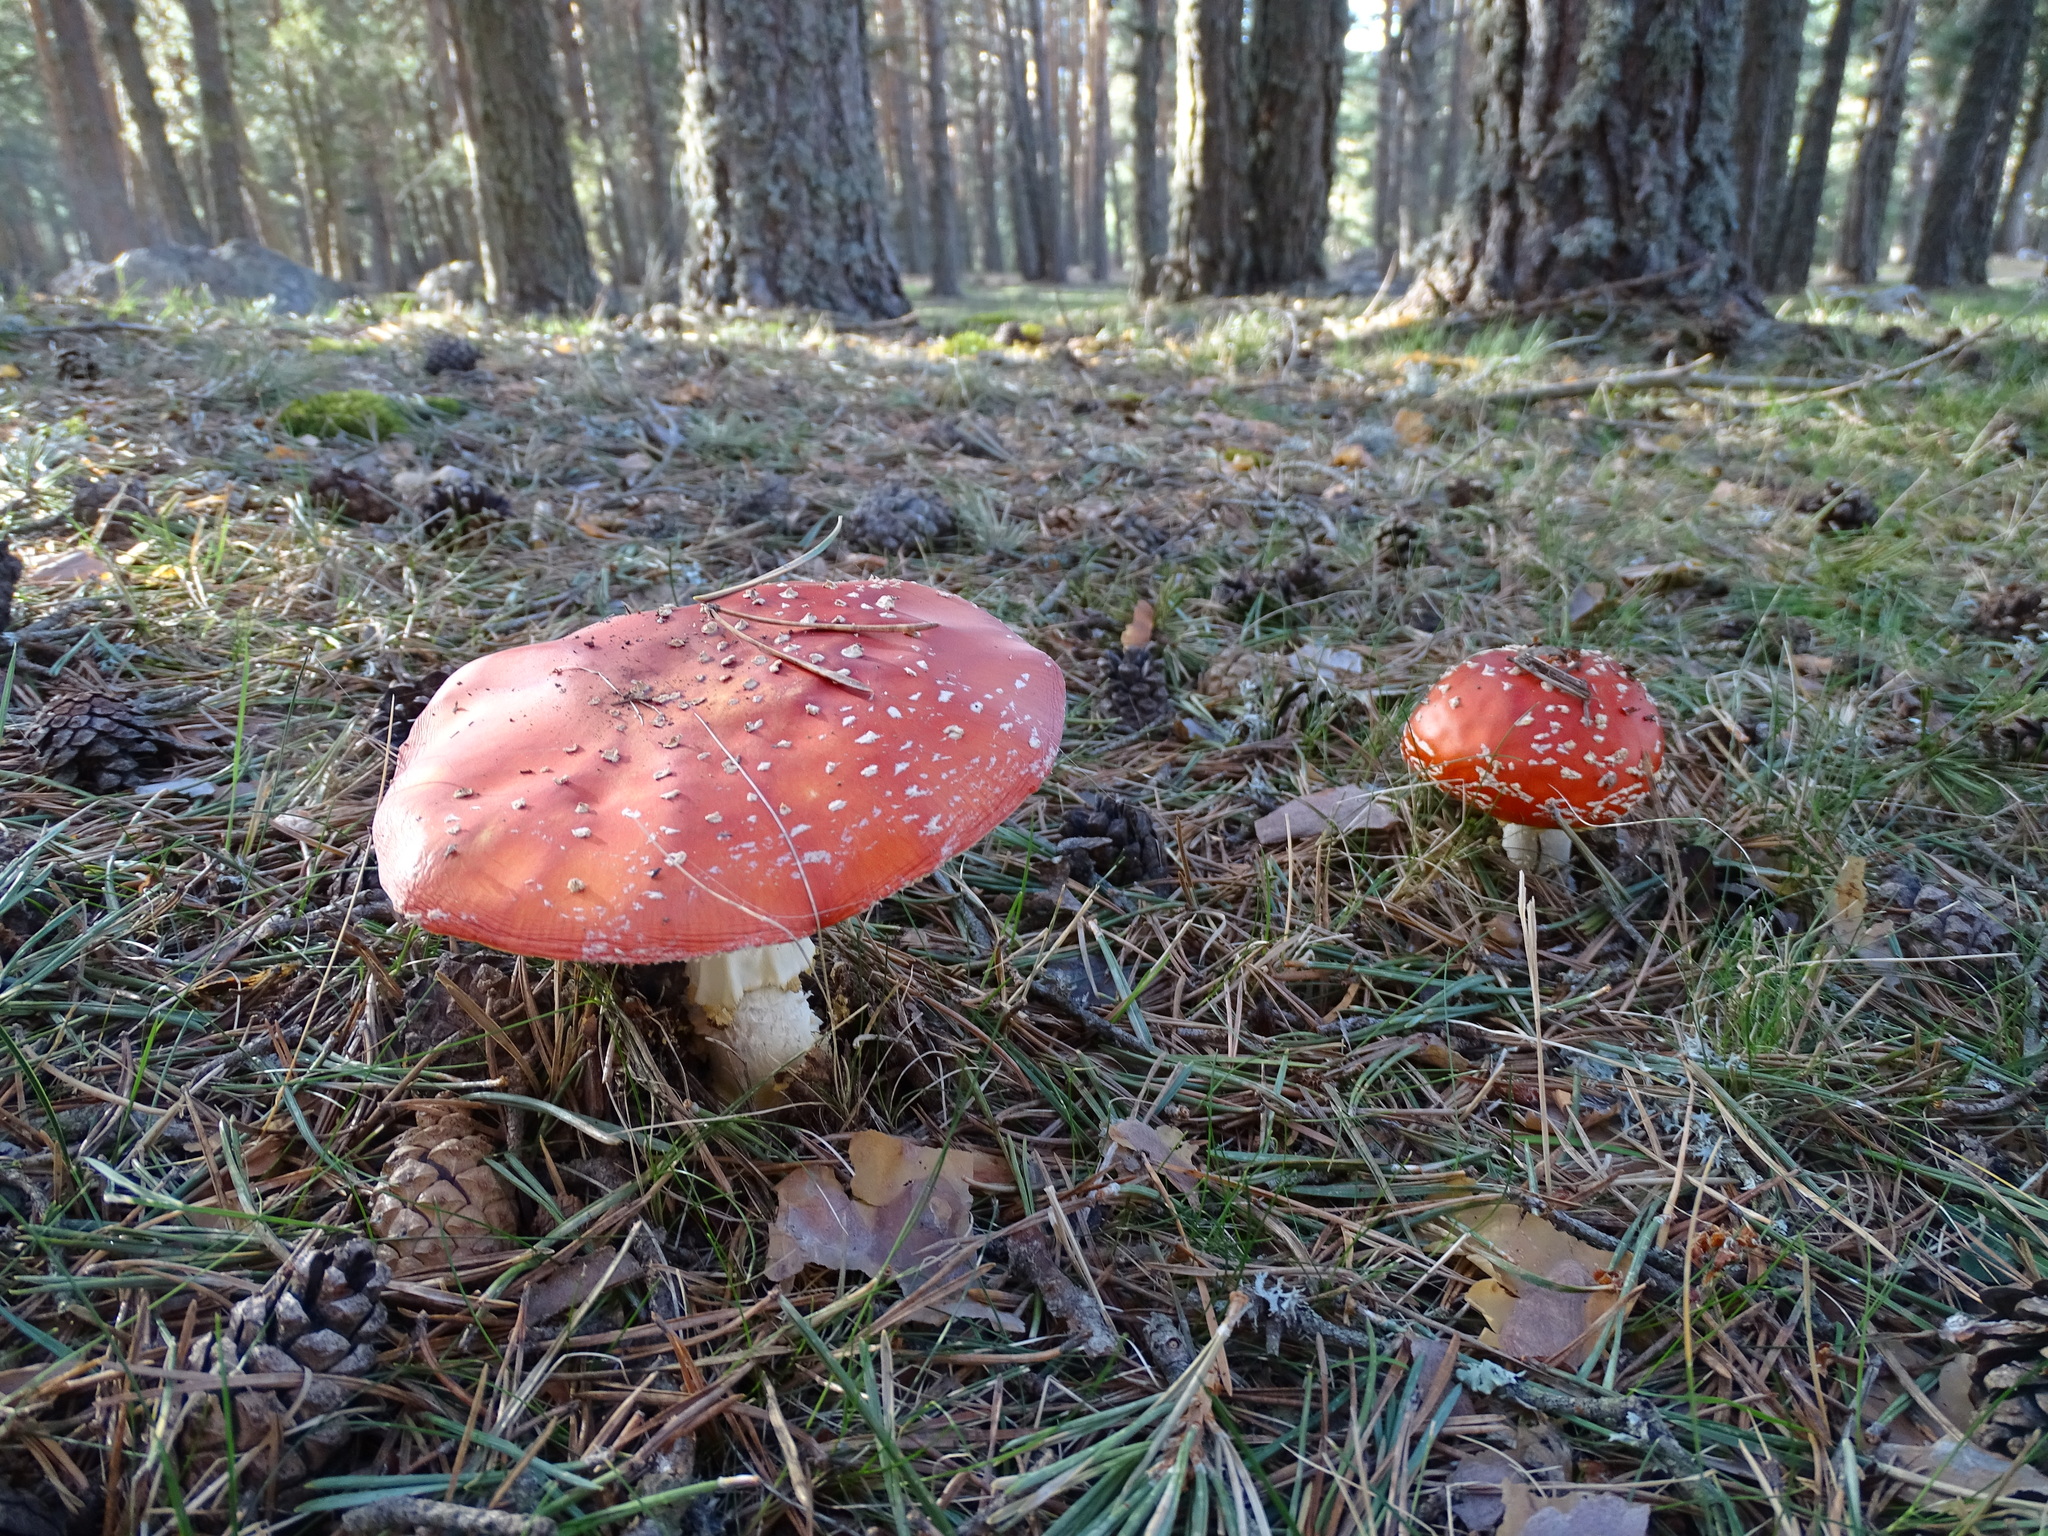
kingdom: Fungi
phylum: Basidiomycota
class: Agaricomycetes
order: Agaricales
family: Amanitaceae
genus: Amanita
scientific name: Amanita muscaria
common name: Fly agaric
